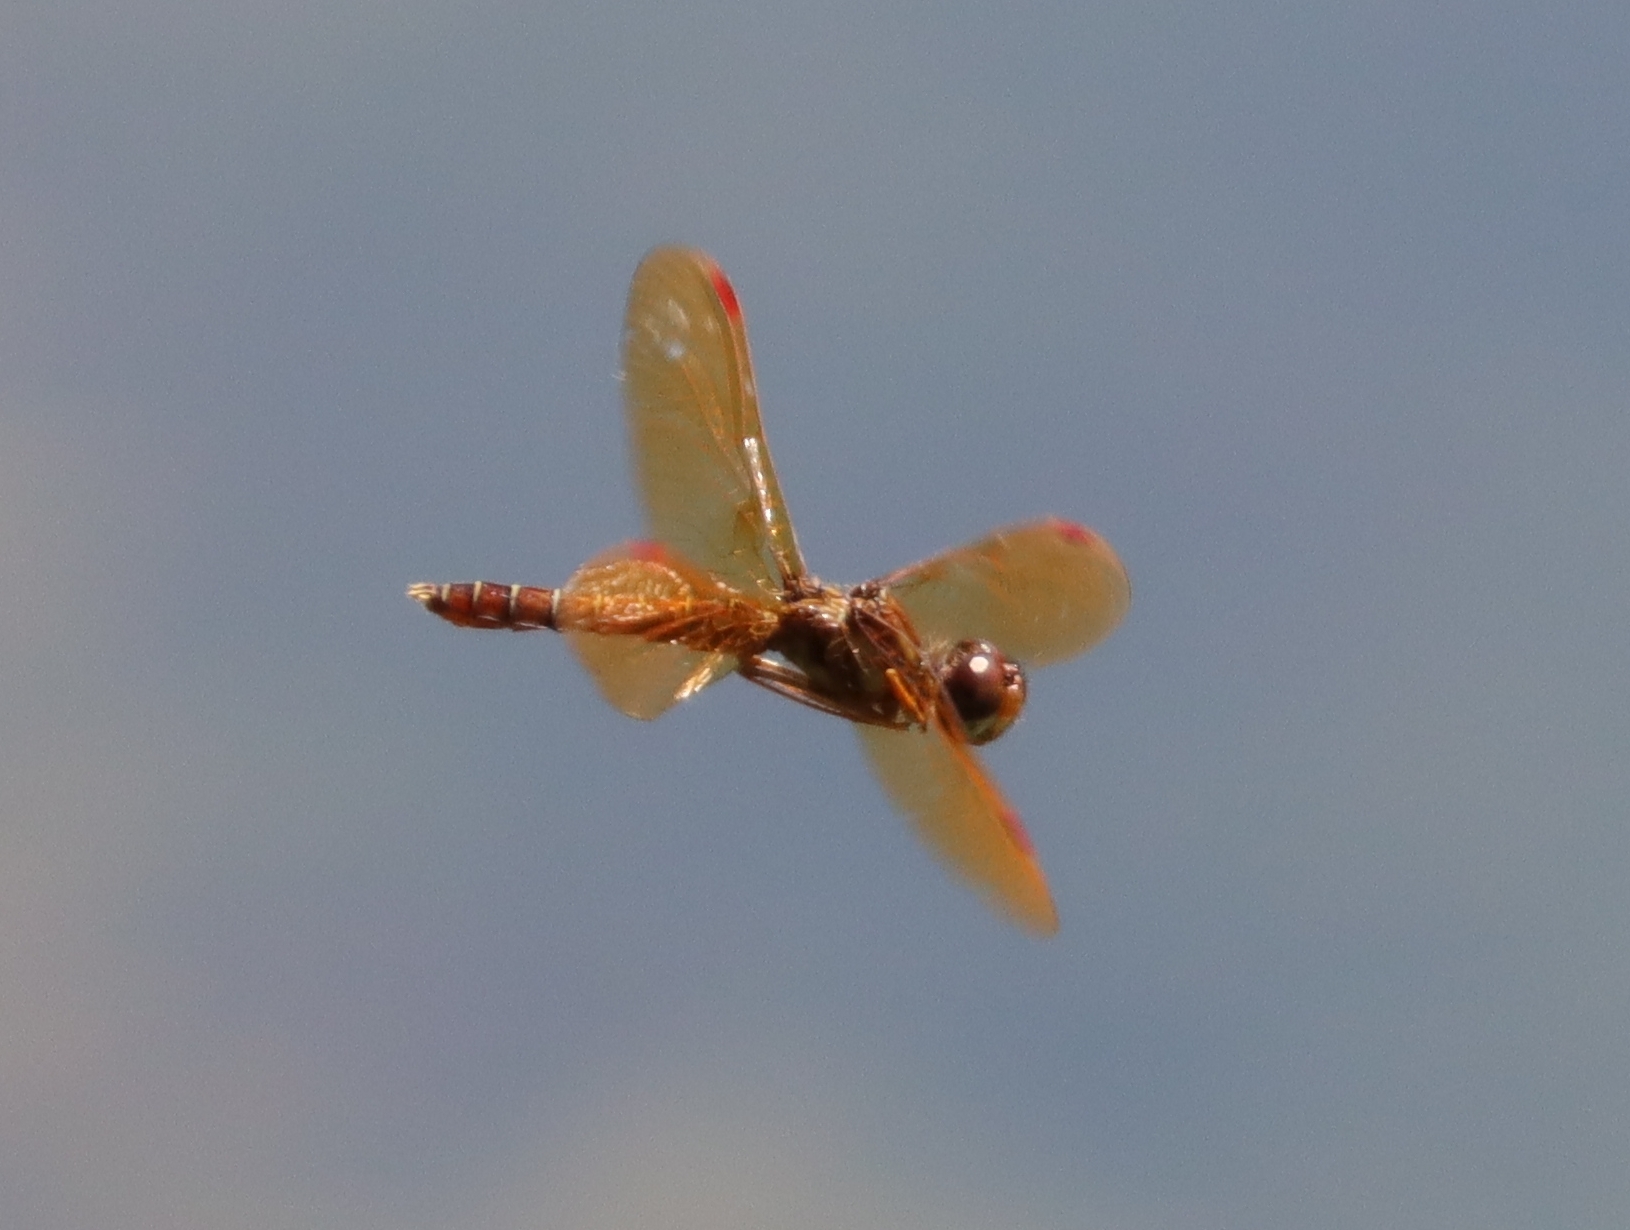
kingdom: Animalia
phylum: Arthropoda
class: Insecta
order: Odonata
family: Libellulidae
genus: Perithemis
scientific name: Perithemis tenera
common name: Eastern amberwing
